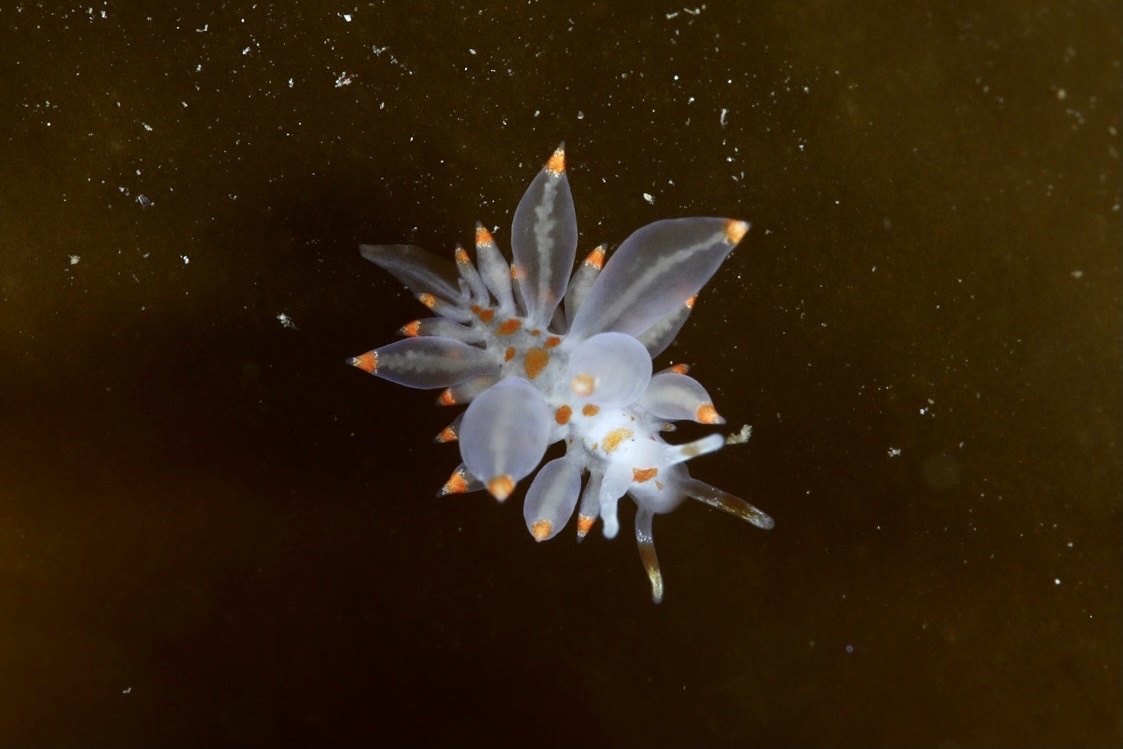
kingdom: Animalia
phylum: Mollusca
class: Gastropoda
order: Nudibranchia
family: Eubranchidae
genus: Amphorina
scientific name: Amphorina andra
